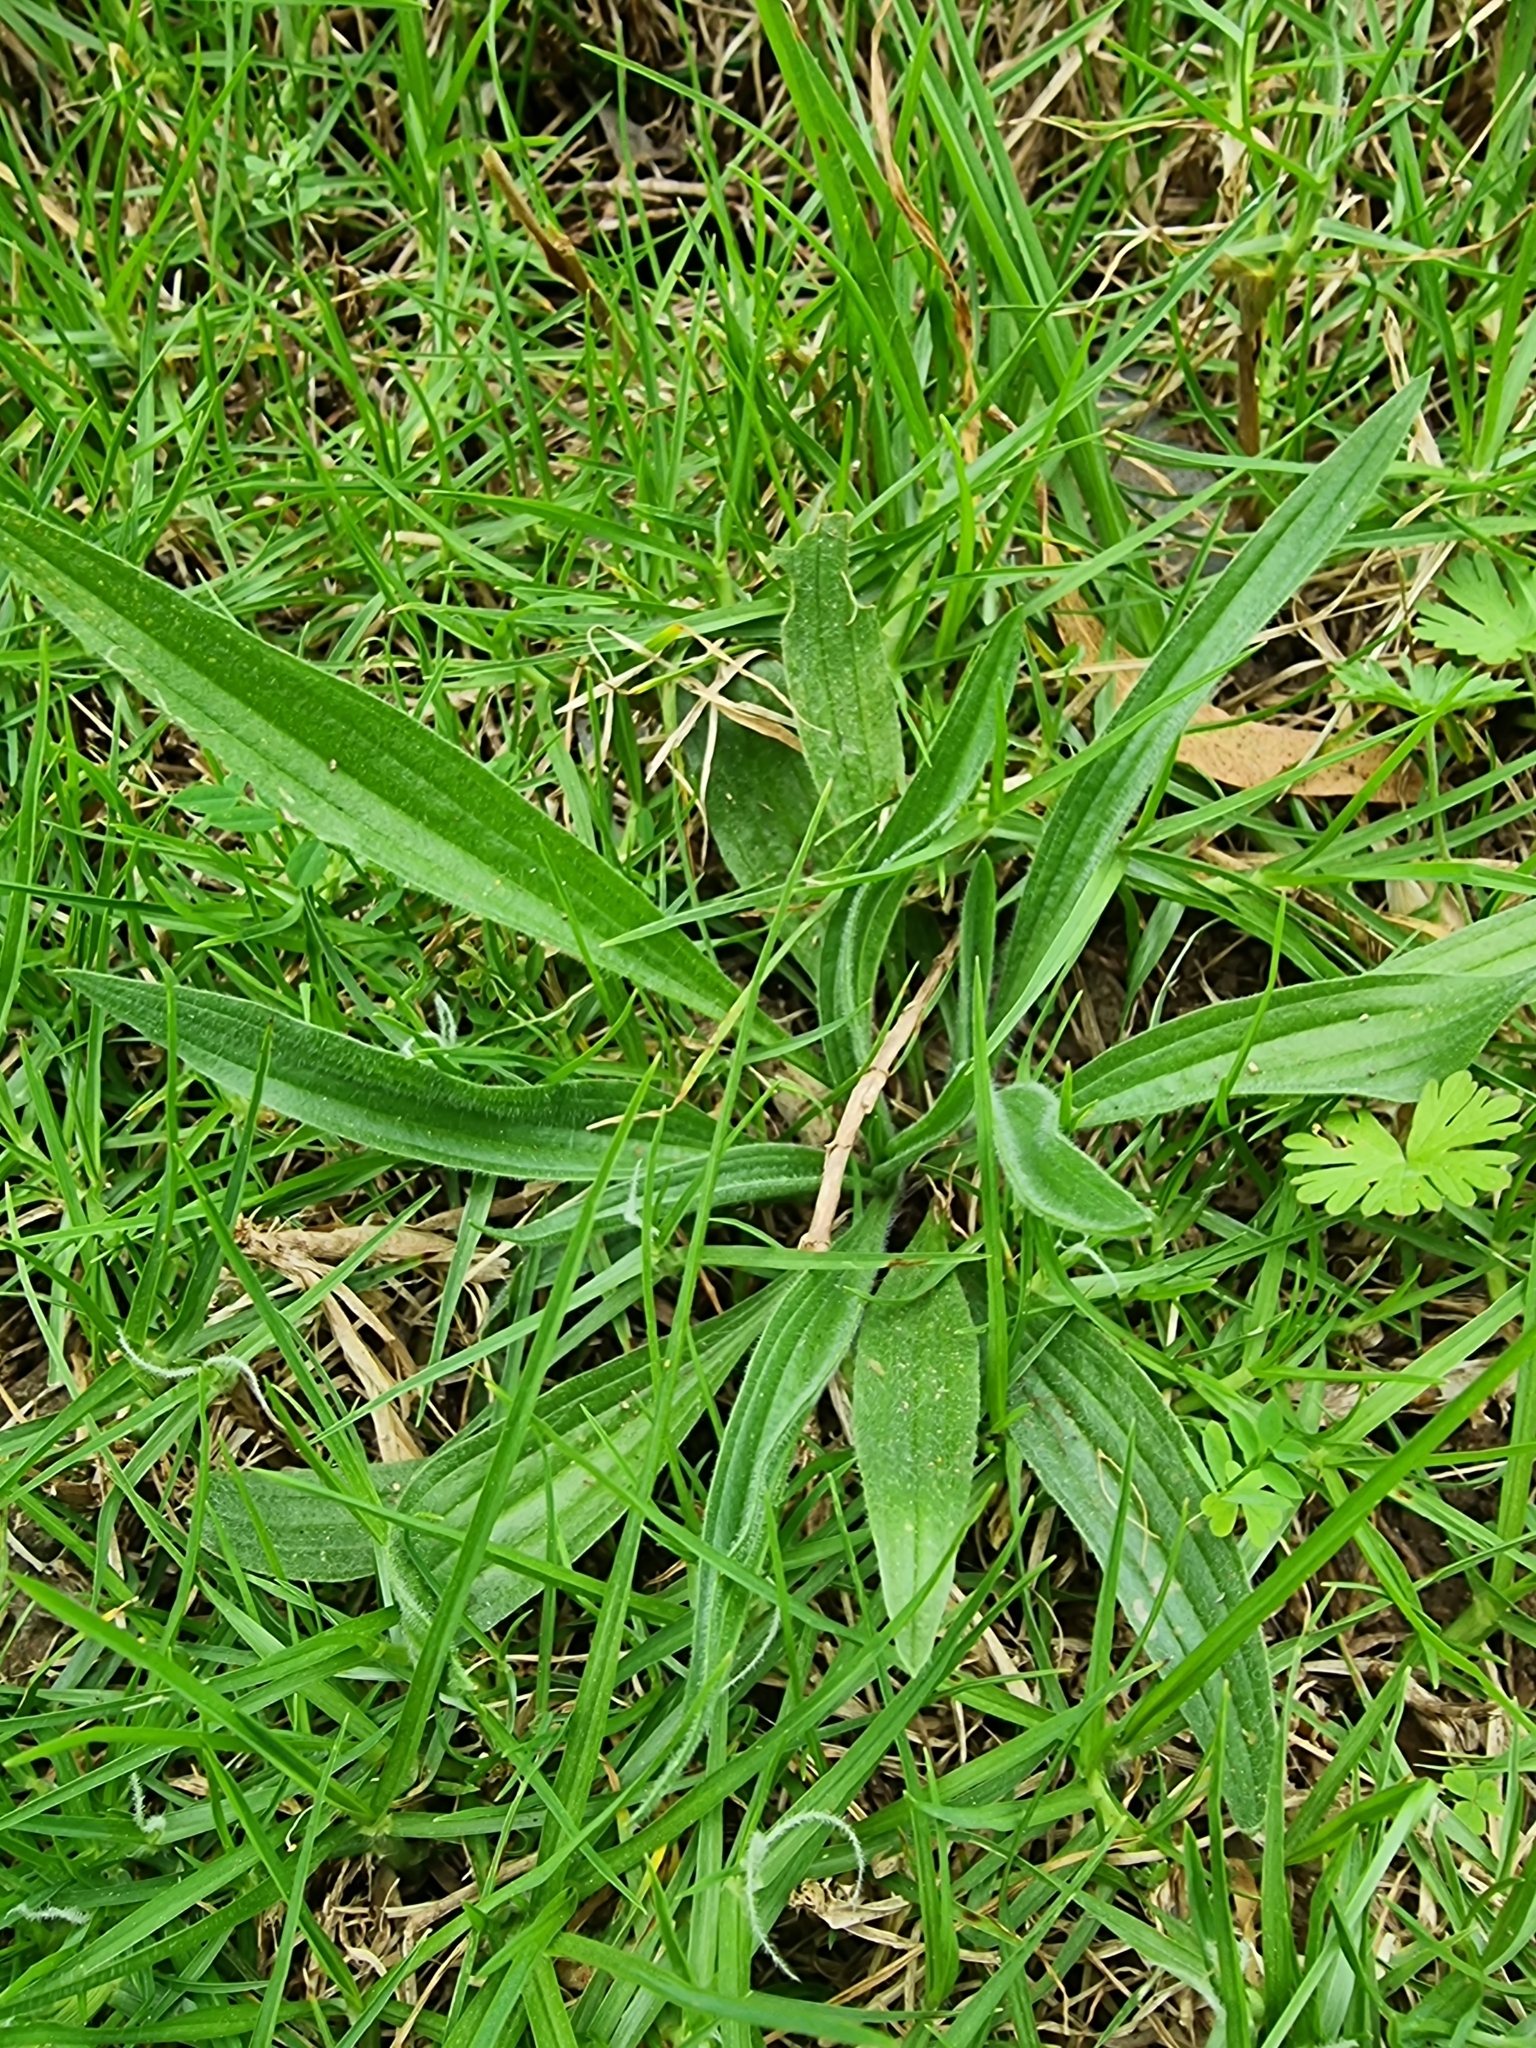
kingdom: Plantae
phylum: Tracheophyta
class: Magnoliopsida
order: Lamiales
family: Plantaginaceae
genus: Plantago
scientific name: Plantago lanceolata
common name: Ribwort plantain
